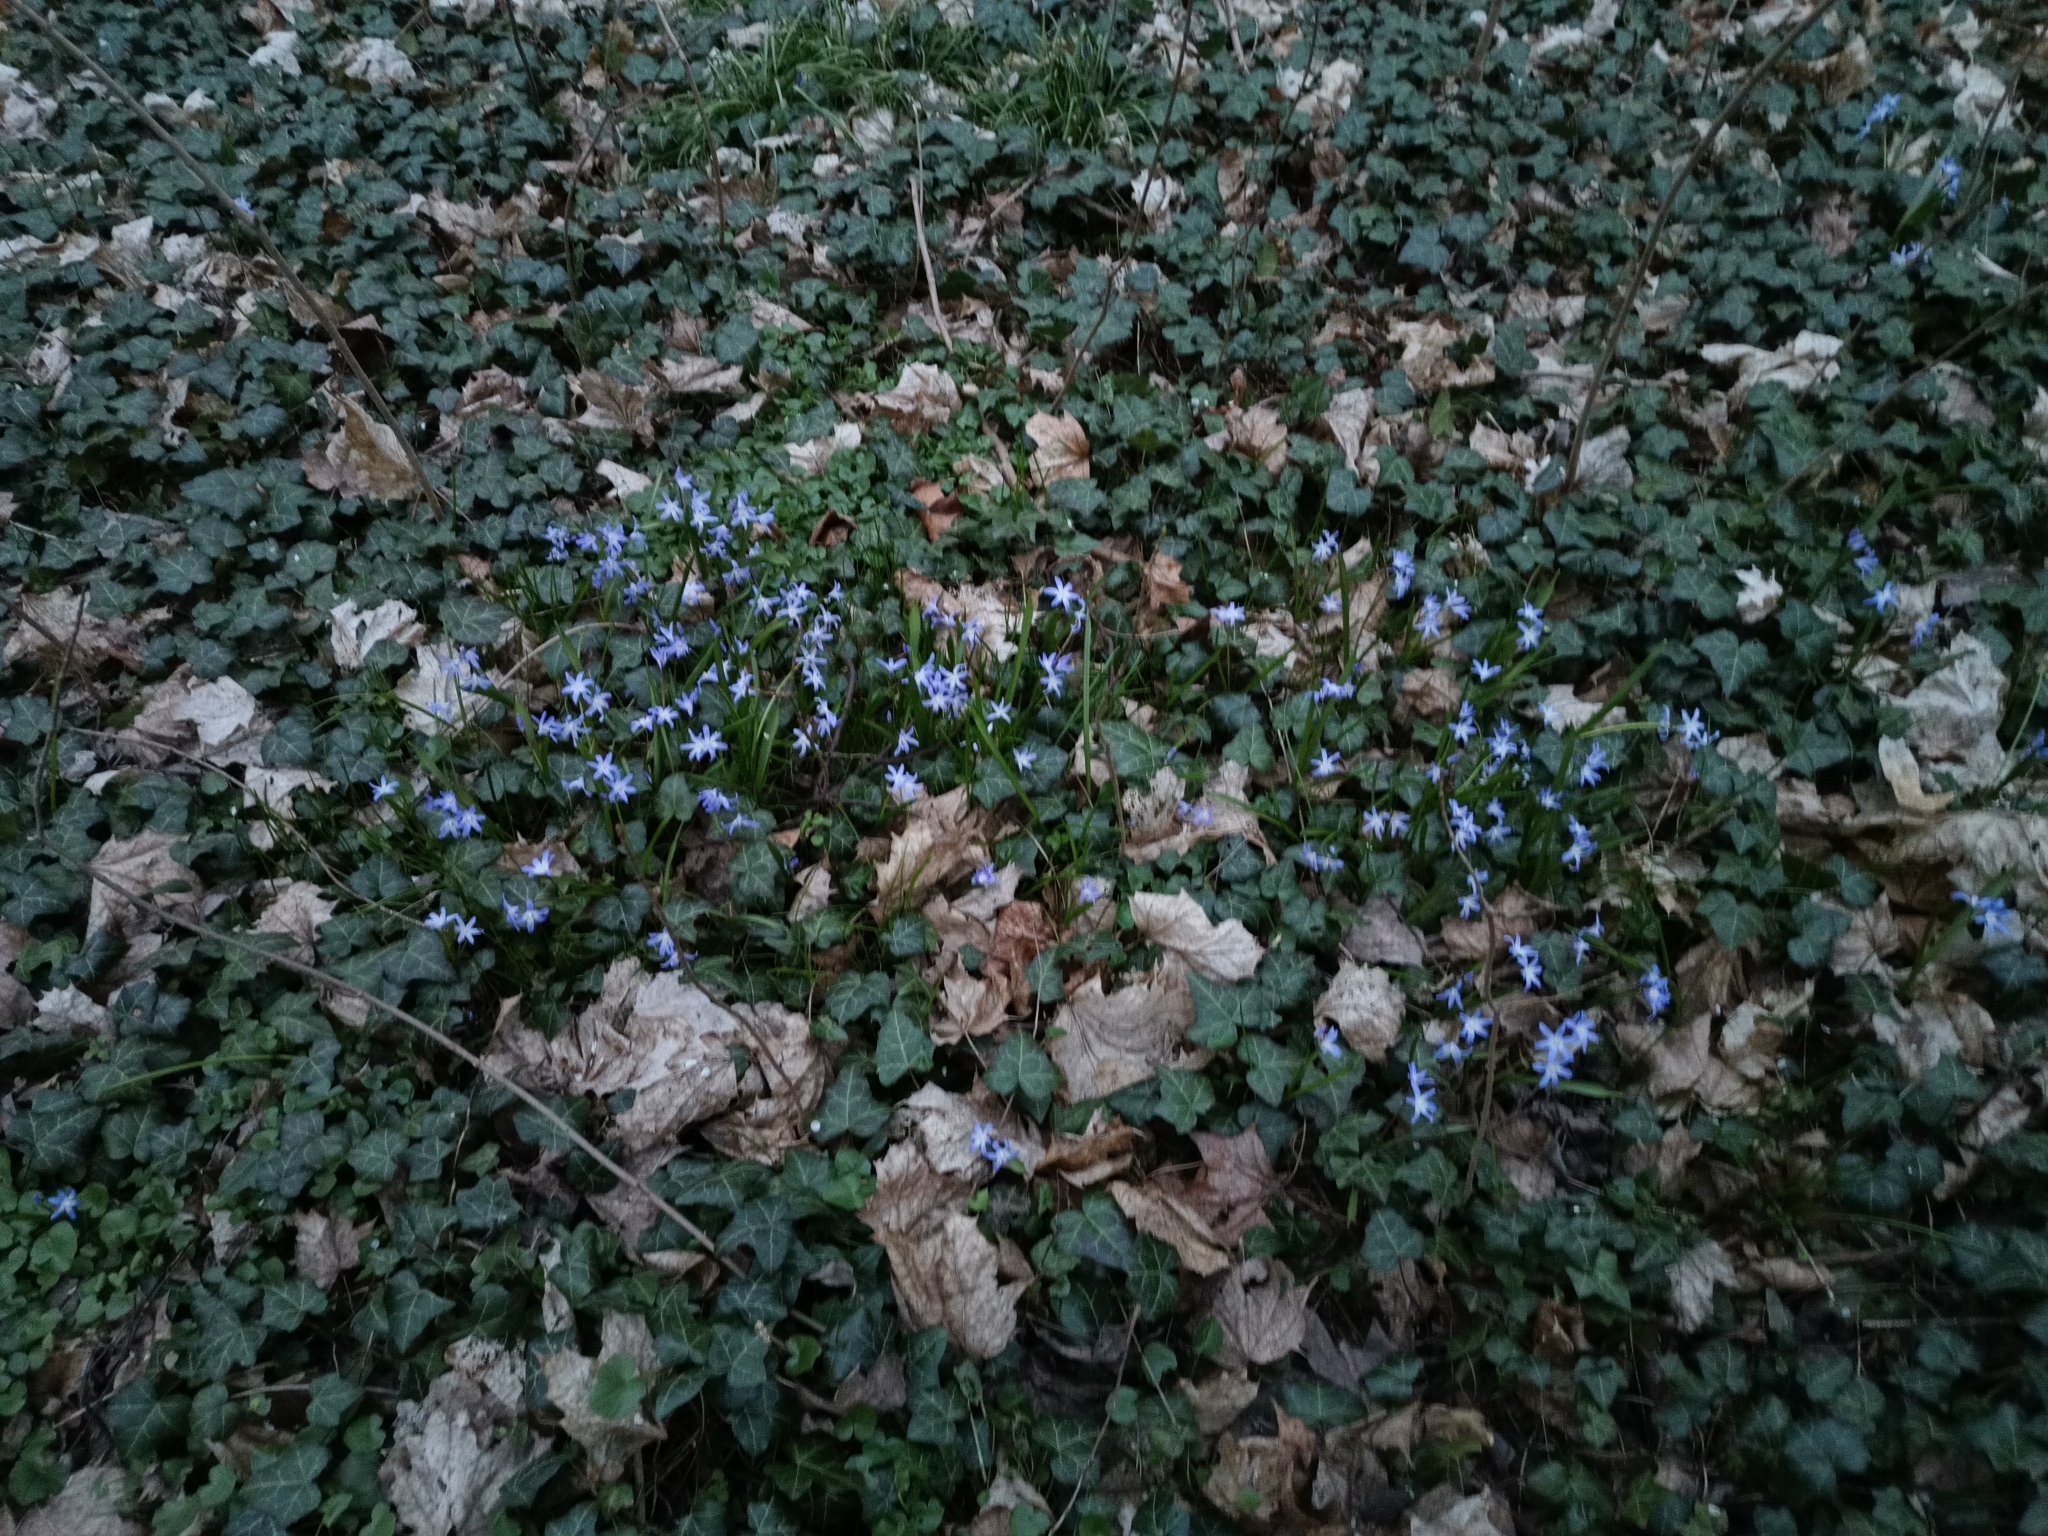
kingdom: Plantae
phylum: Tracheophyta
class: Liliopsida
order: Asparagales
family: Asparagaceae
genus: Scilla
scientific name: Scilla forbesii
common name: Glory-of-the-snow
